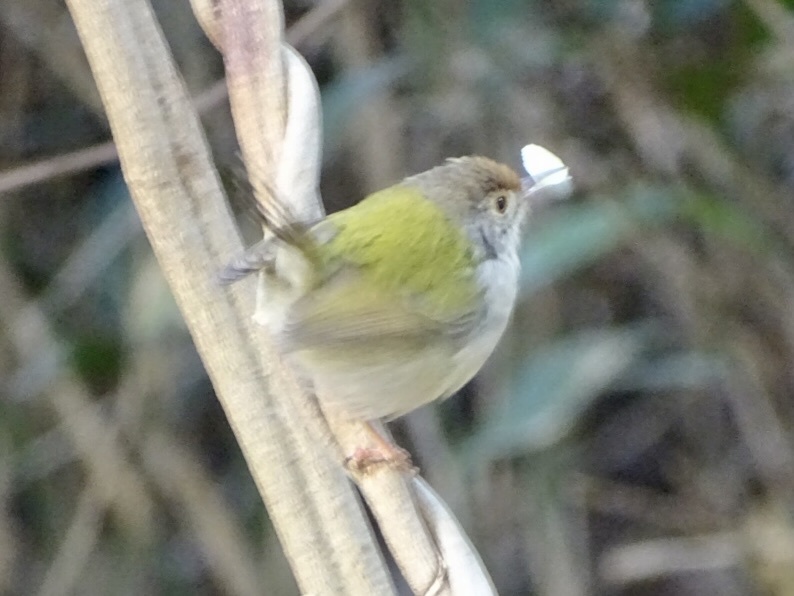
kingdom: Animalia
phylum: Chordata
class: Aves
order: Passeriformes
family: Cisticolidae
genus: Orthotomus
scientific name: Orthotomus sutorius
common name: Common tailorbird
